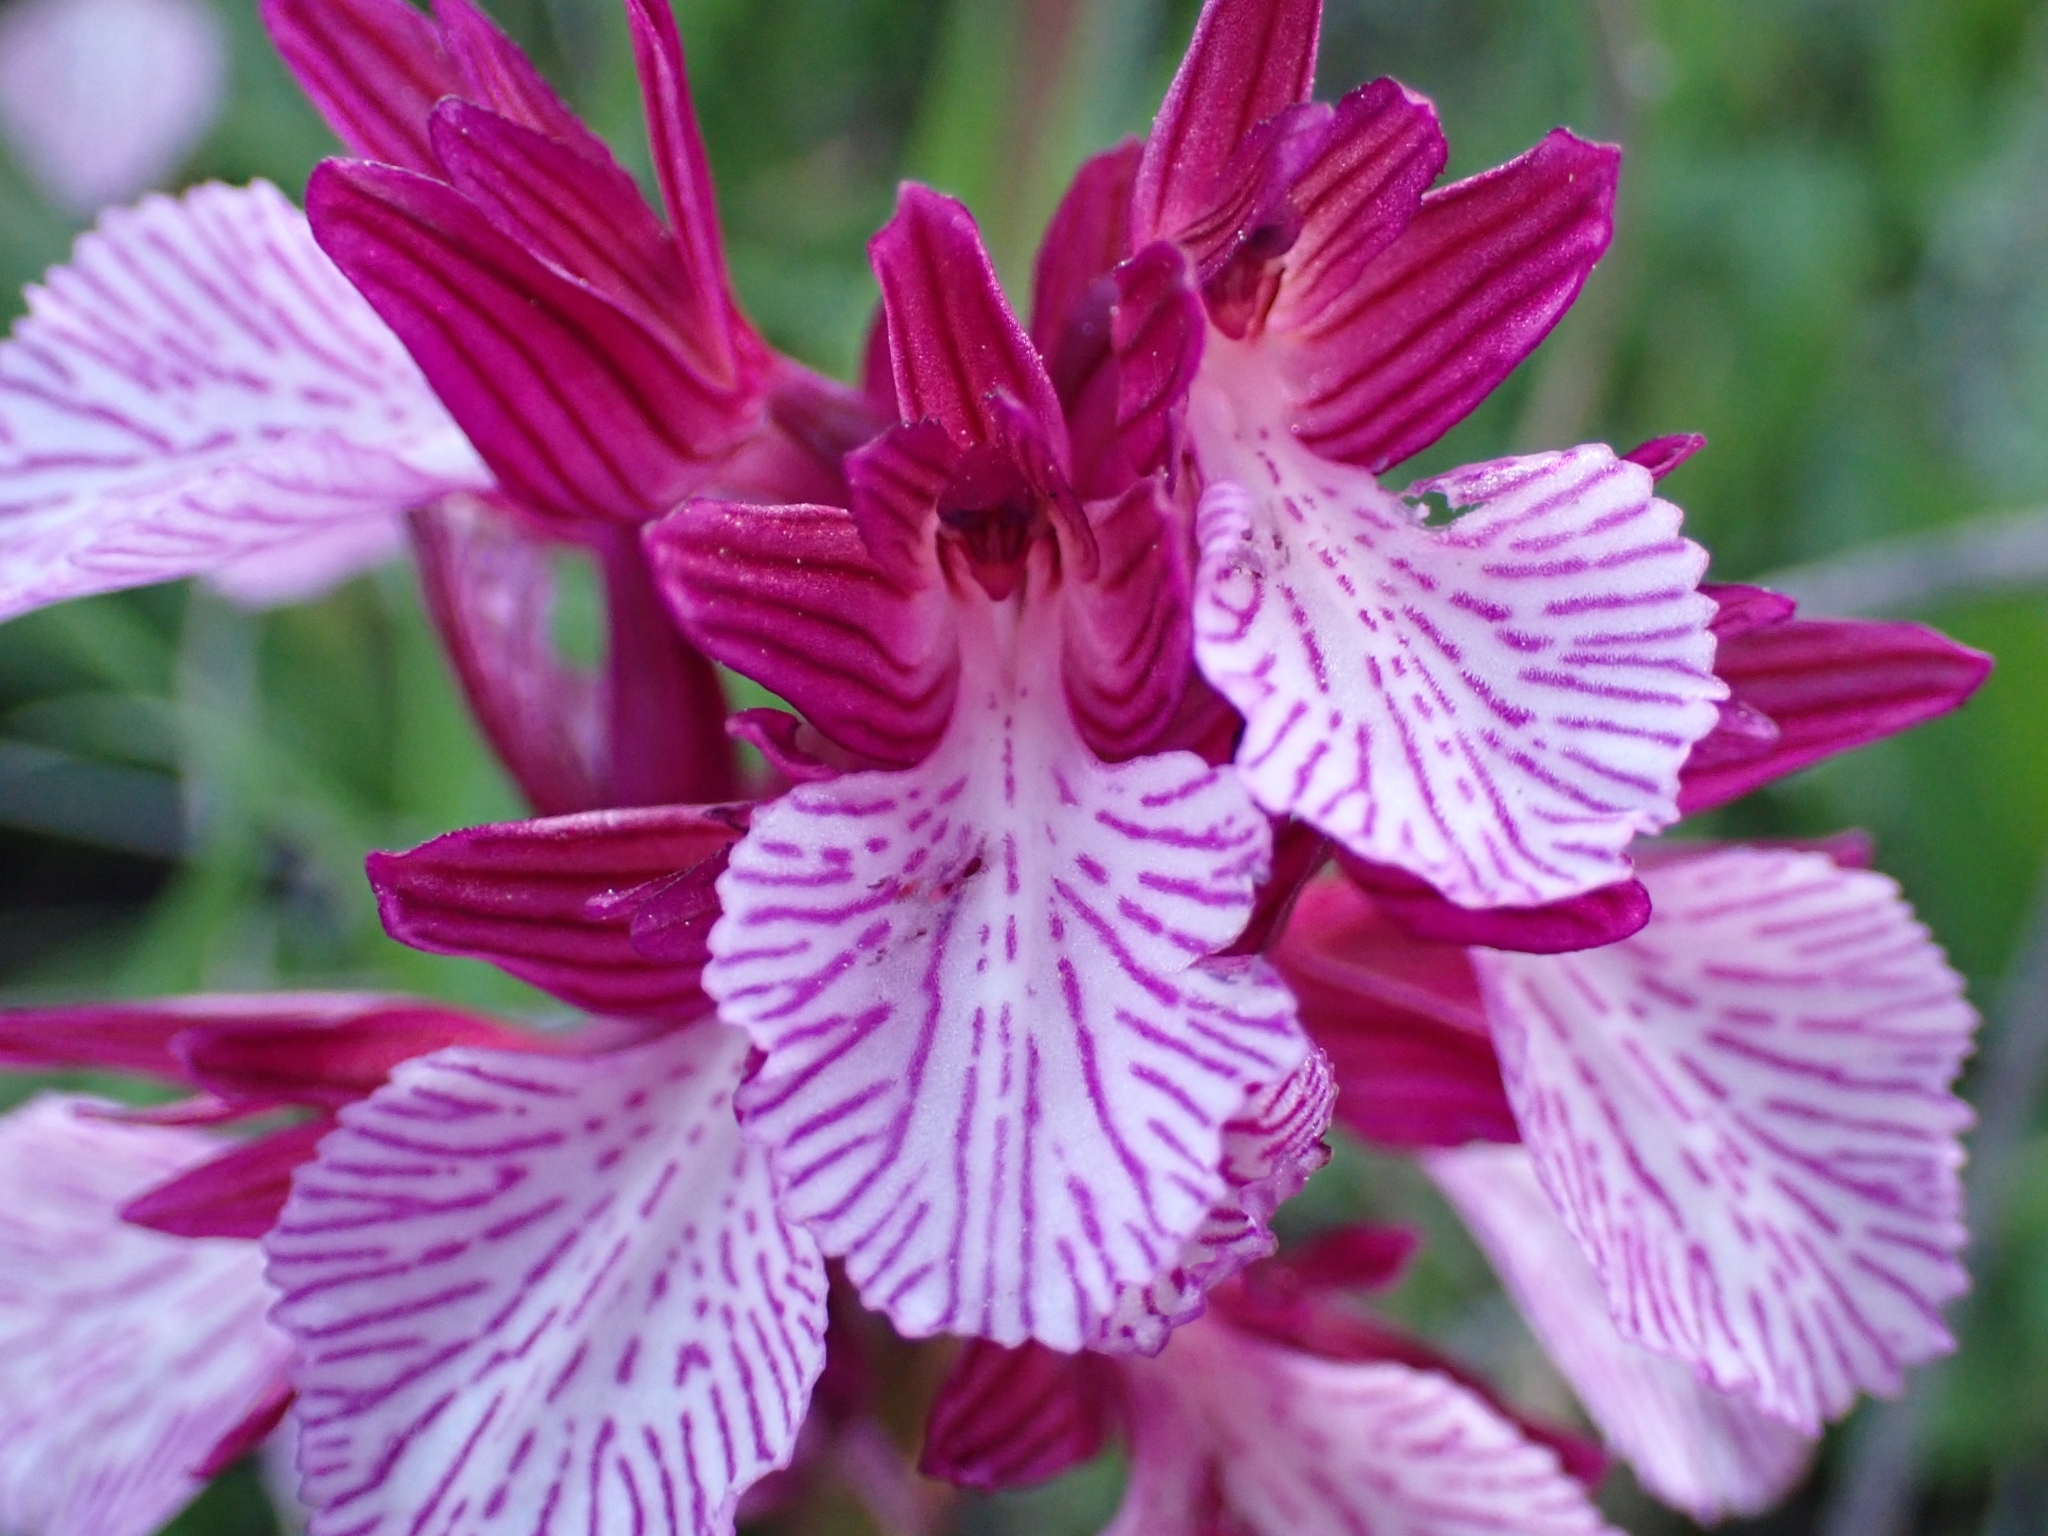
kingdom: Plantae
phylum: Tracheophyta
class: Liliopsida
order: Asparagales
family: Orchidaceae
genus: Anacamptis
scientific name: Anacamptis papilionacea
